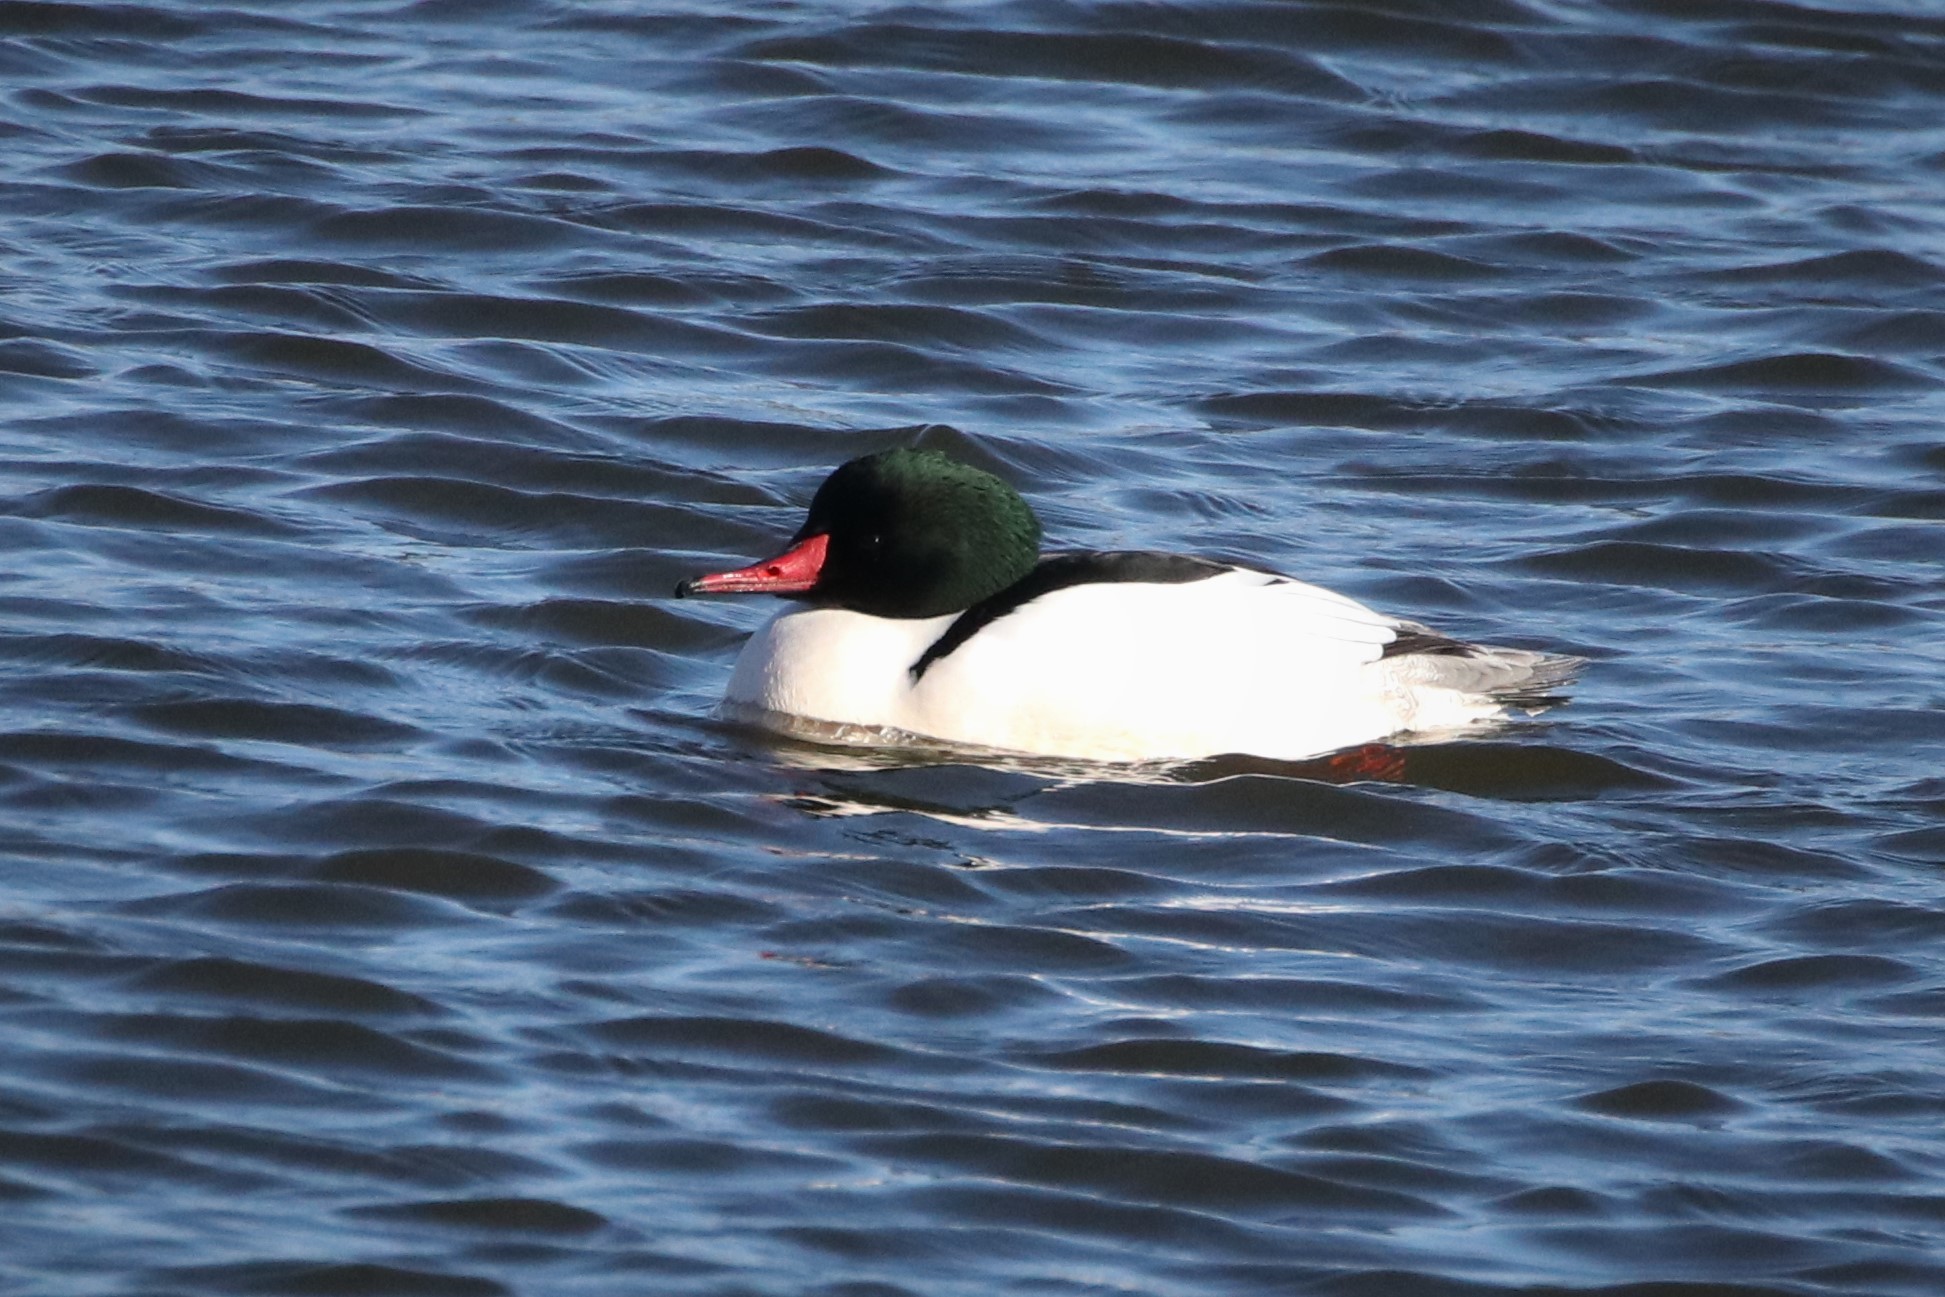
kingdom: Animalia
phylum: Chordata
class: Aves
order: Anseriformes
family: Anatidae
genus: Mergus
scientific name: Mergus merganser
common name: Common merganser
